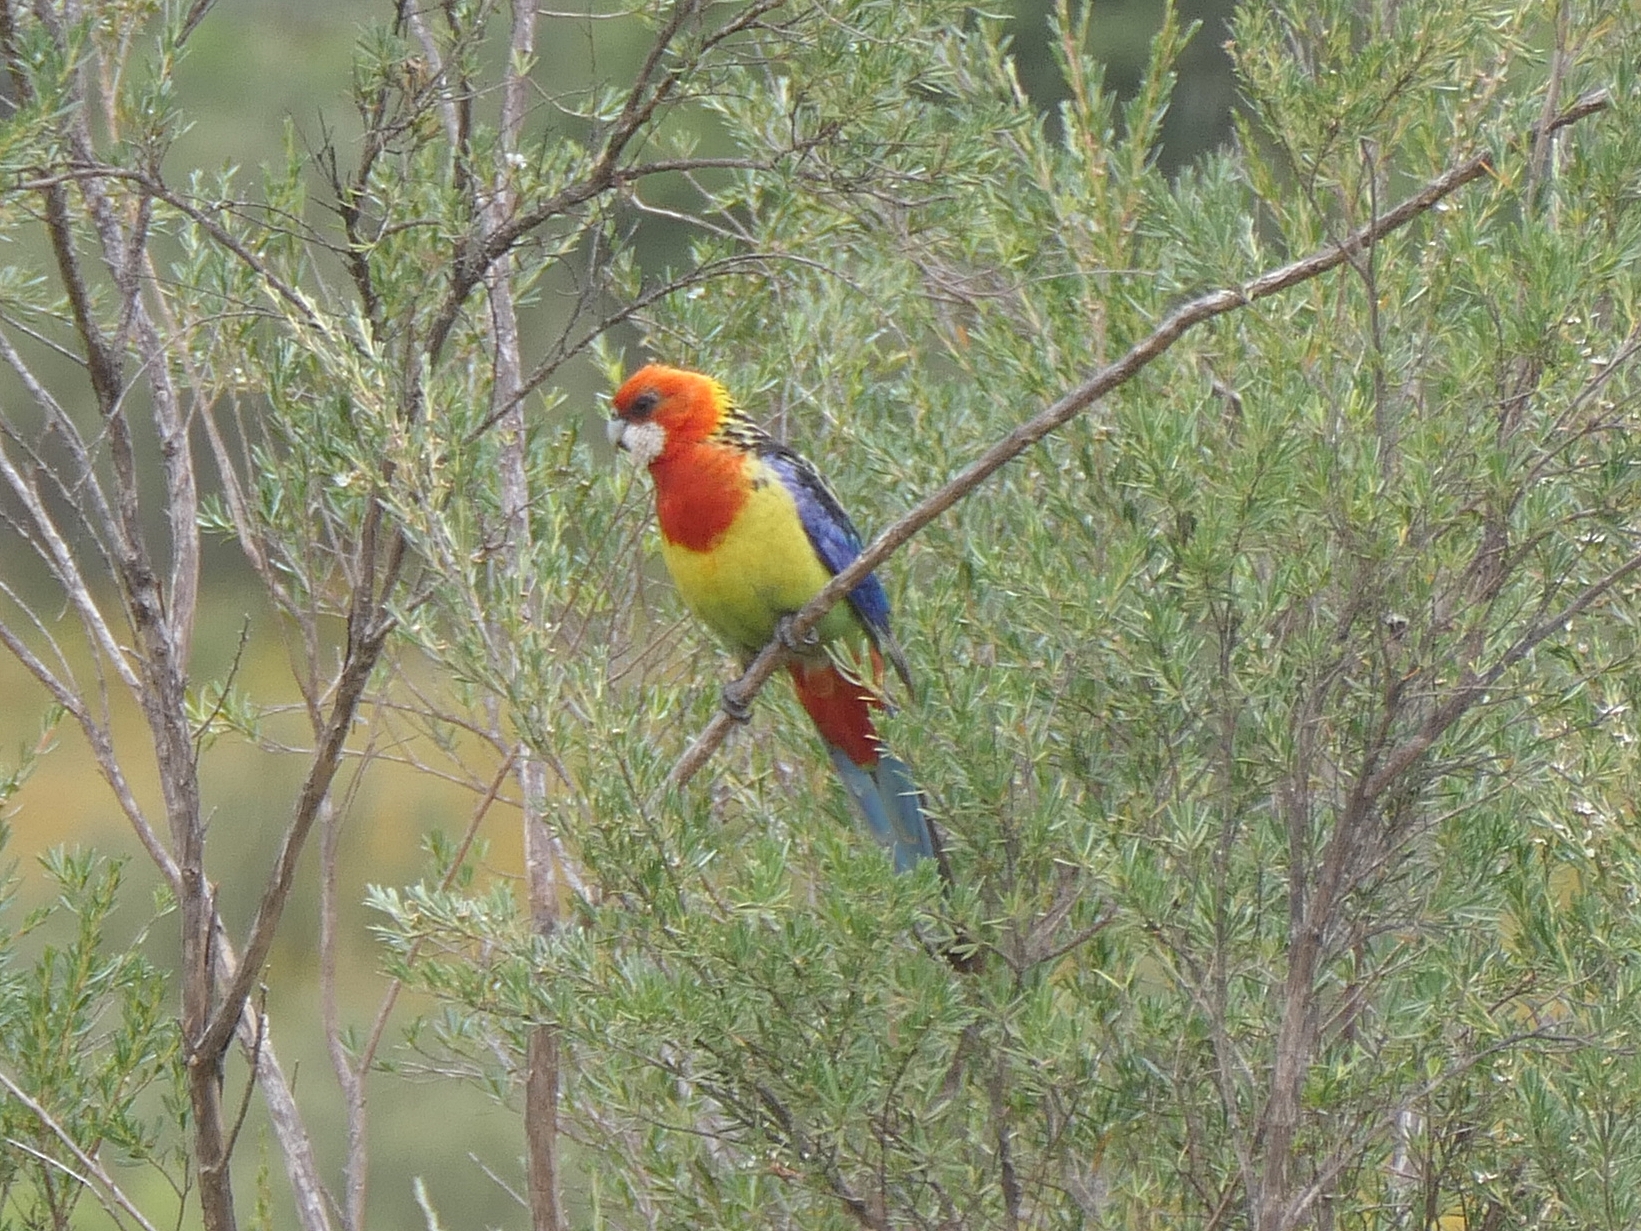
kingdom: Animalia
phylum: Chordata
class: Aves
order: Psittaciformes
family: Psittacidae
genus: Platycercus
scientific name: Platycercus eximius
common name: Eastern rosella
